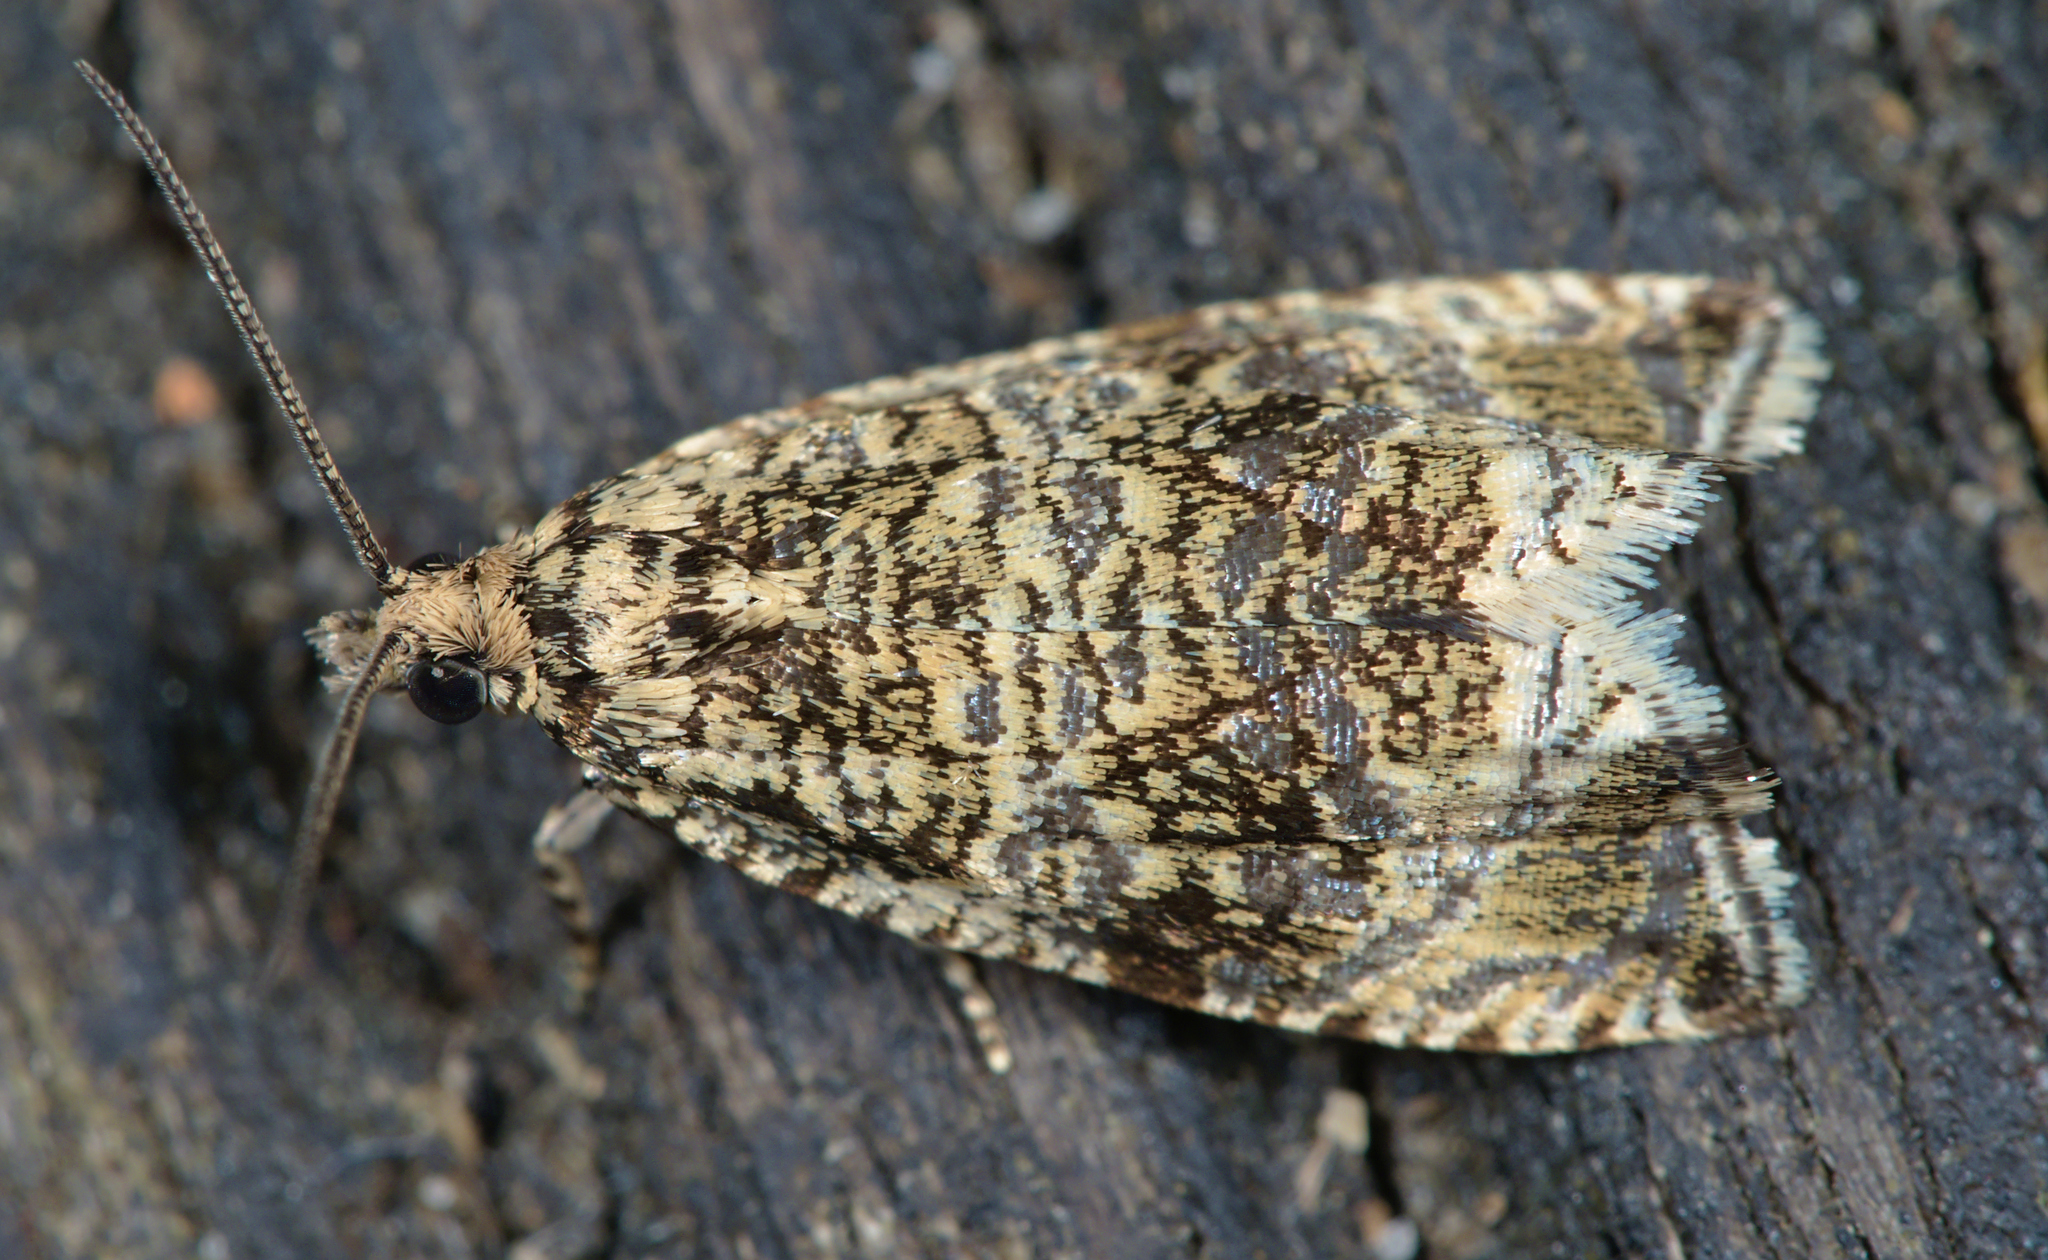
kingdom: Animalia
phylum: Arthropoda
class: Insecta
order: Lepidoptera
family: Tortricidae
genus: Syricoris
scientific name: Syricoris lacunana
